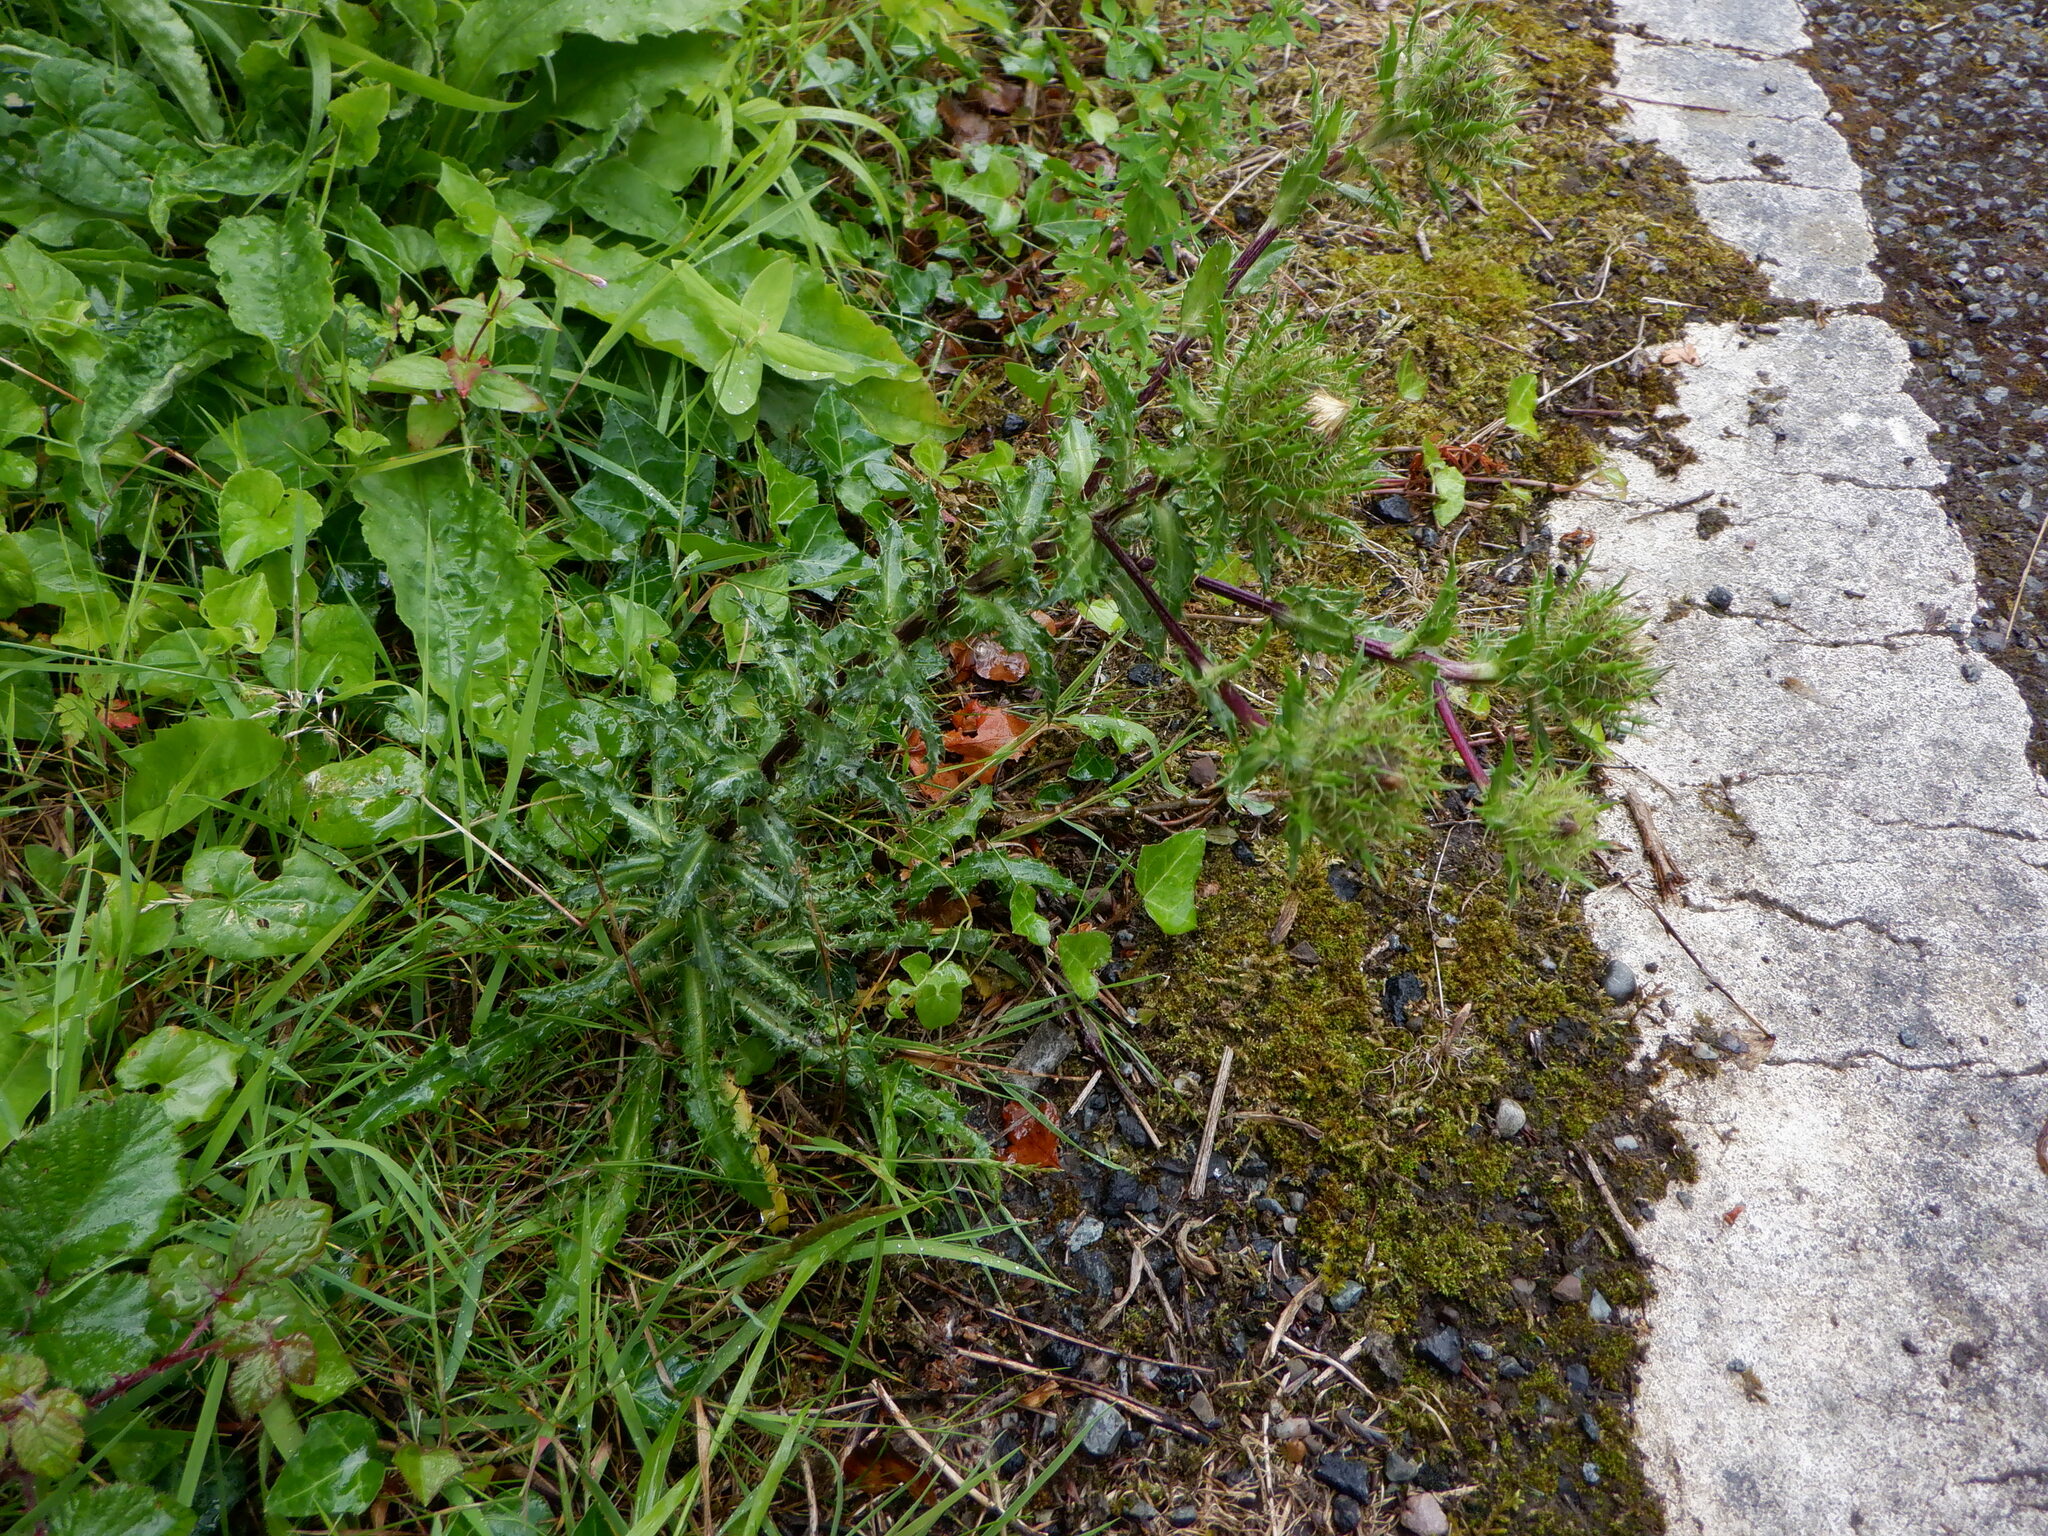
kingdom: Plantae
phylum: Tracheophyta
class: Magnoliopsida
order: Asterales
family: Asteraceae
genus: Carlina
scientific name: Carlina vulgaris
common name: Carline thistle
